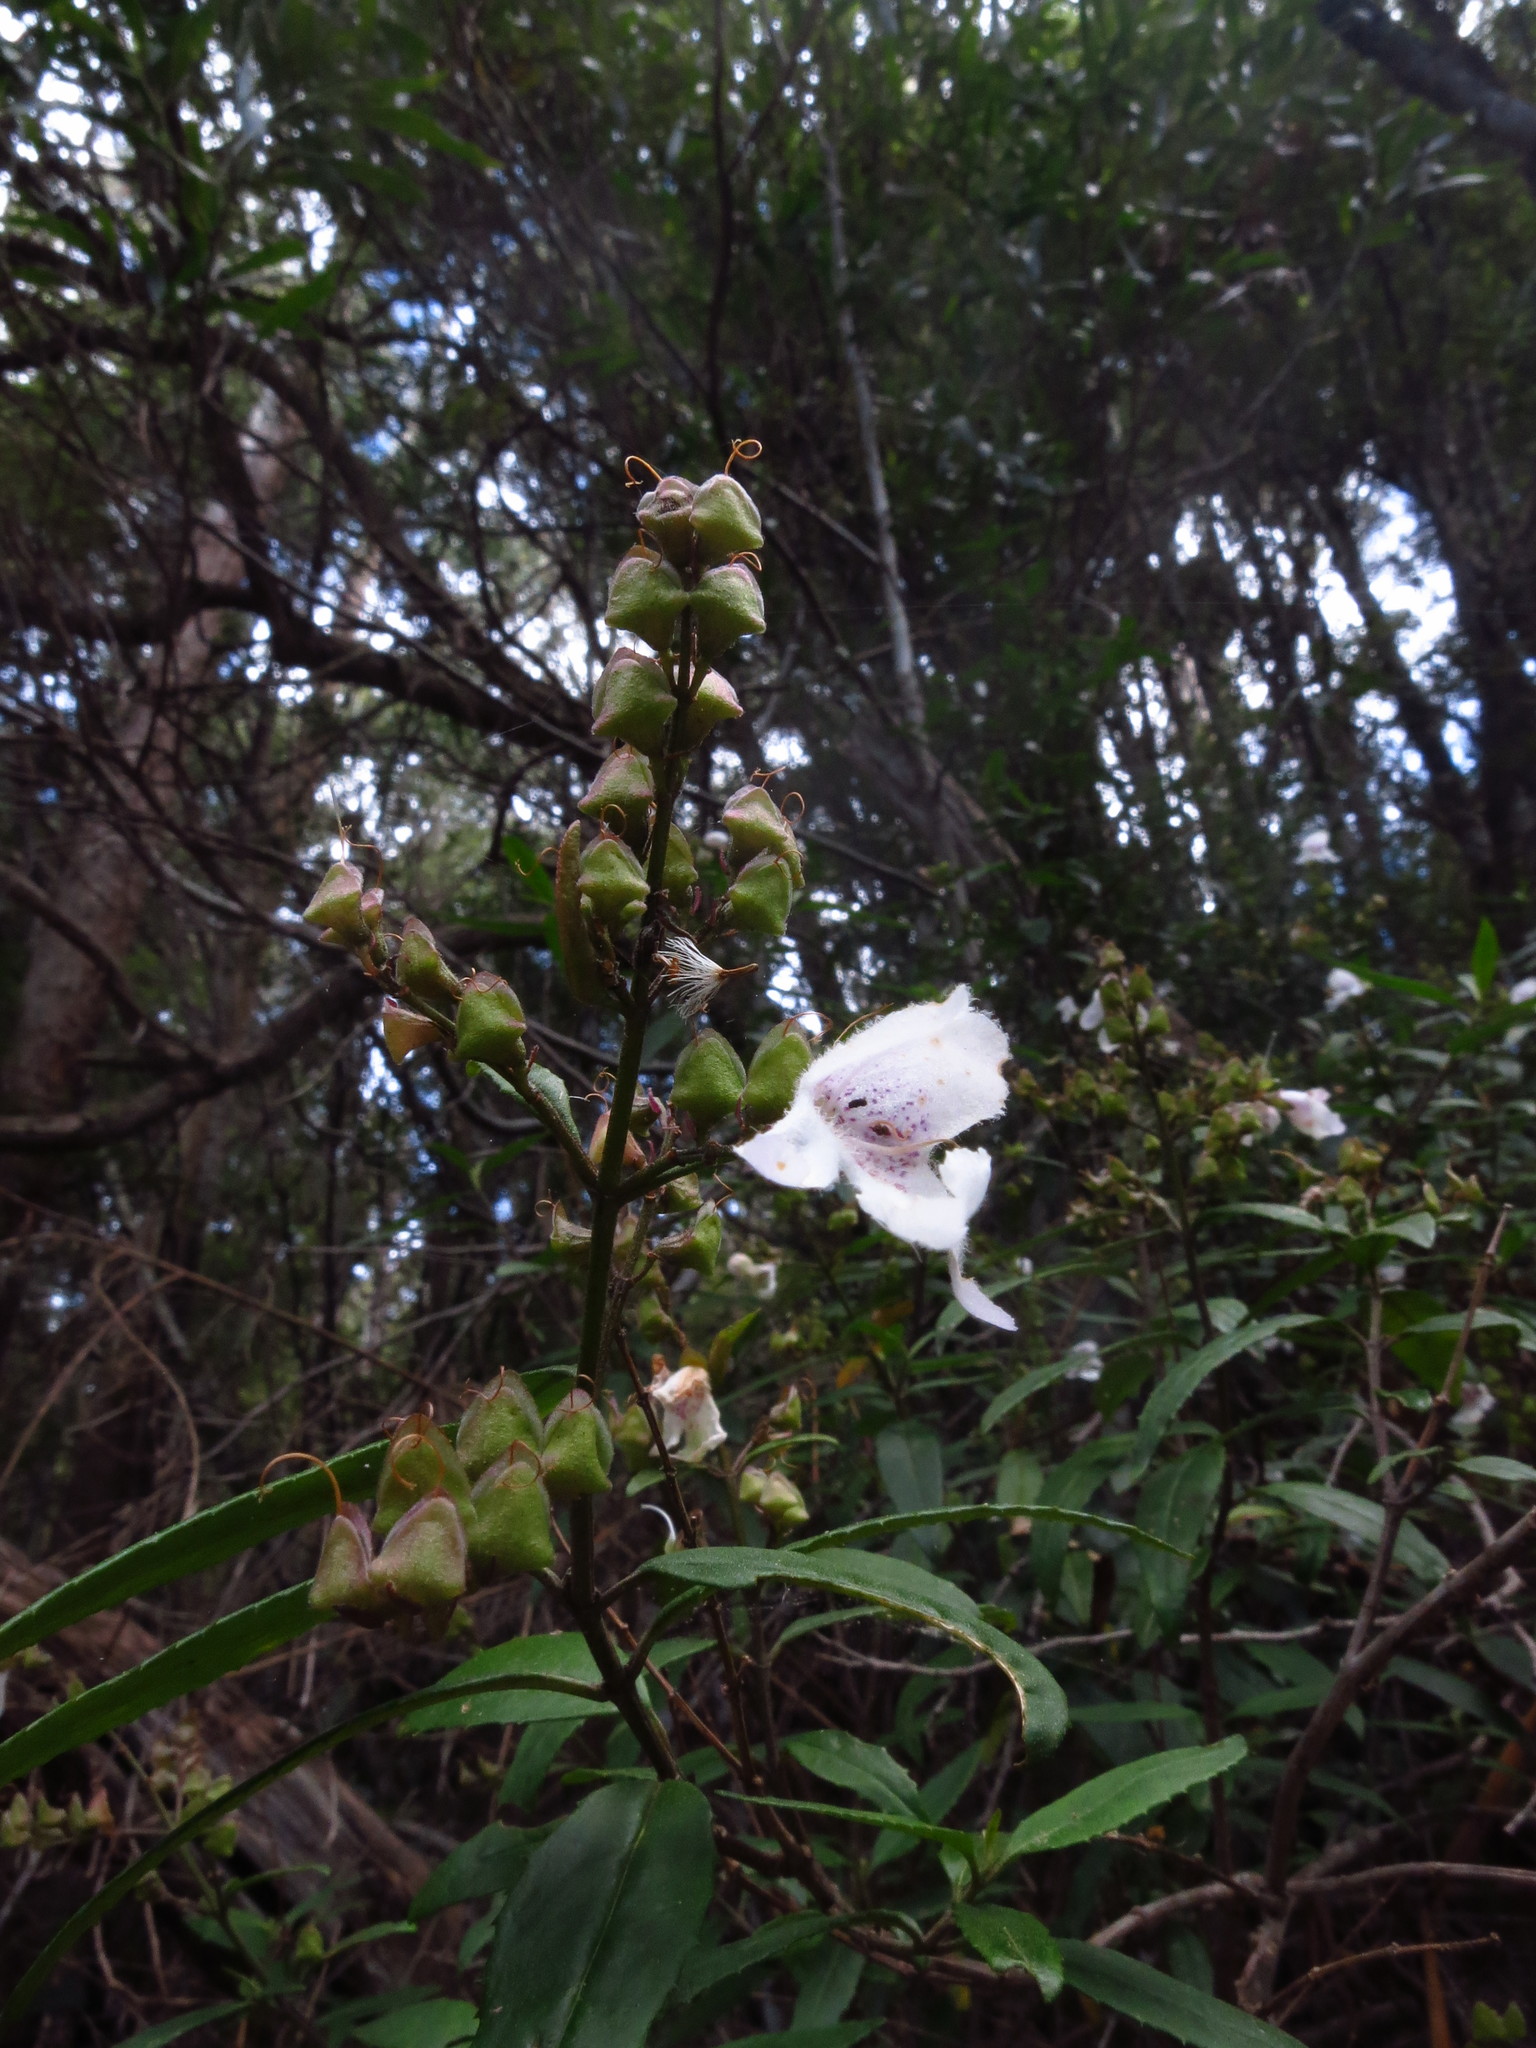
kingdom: Plantae
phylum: Tracheophyta
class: Magnoliopsida
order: Lamiales
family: Lamiaceae
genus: Prostanthera
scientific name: Prostanthera lasianthos
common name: Mountain-lilac
